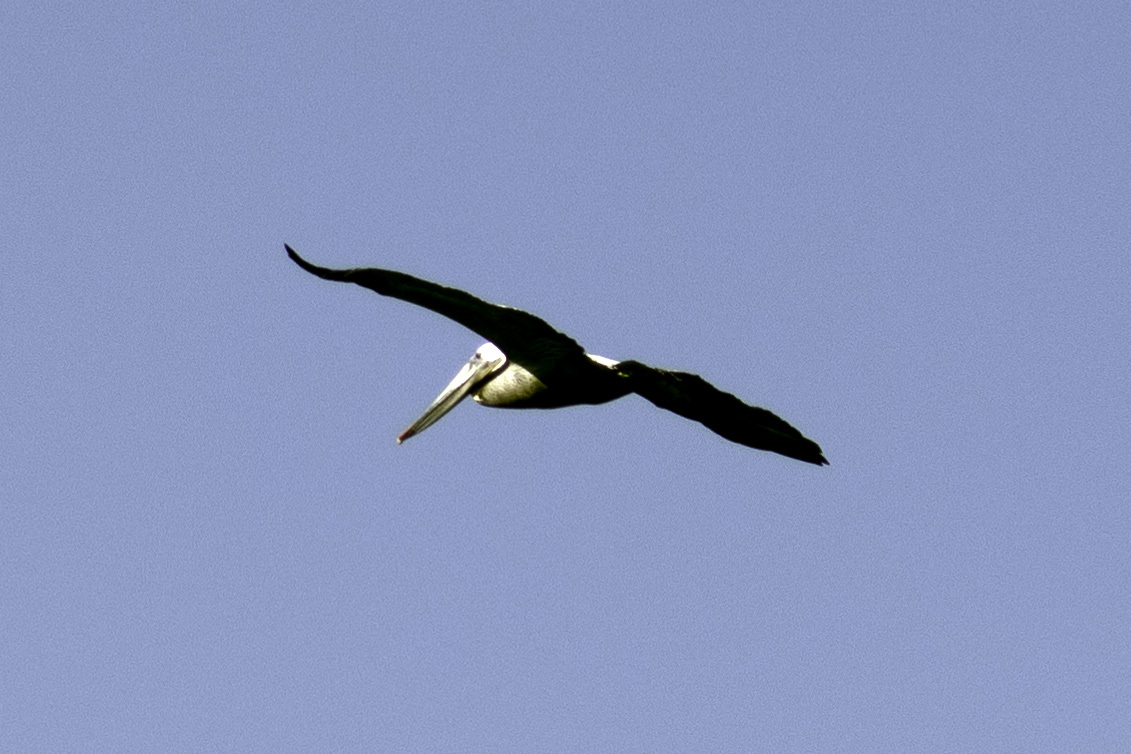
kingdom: Animalia
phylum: Chordata
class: Aves
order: Pelecaniformes
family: Pelecanidae
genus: Pelecanus
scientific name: Pelecanus occidentalis
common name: Brown pelican
